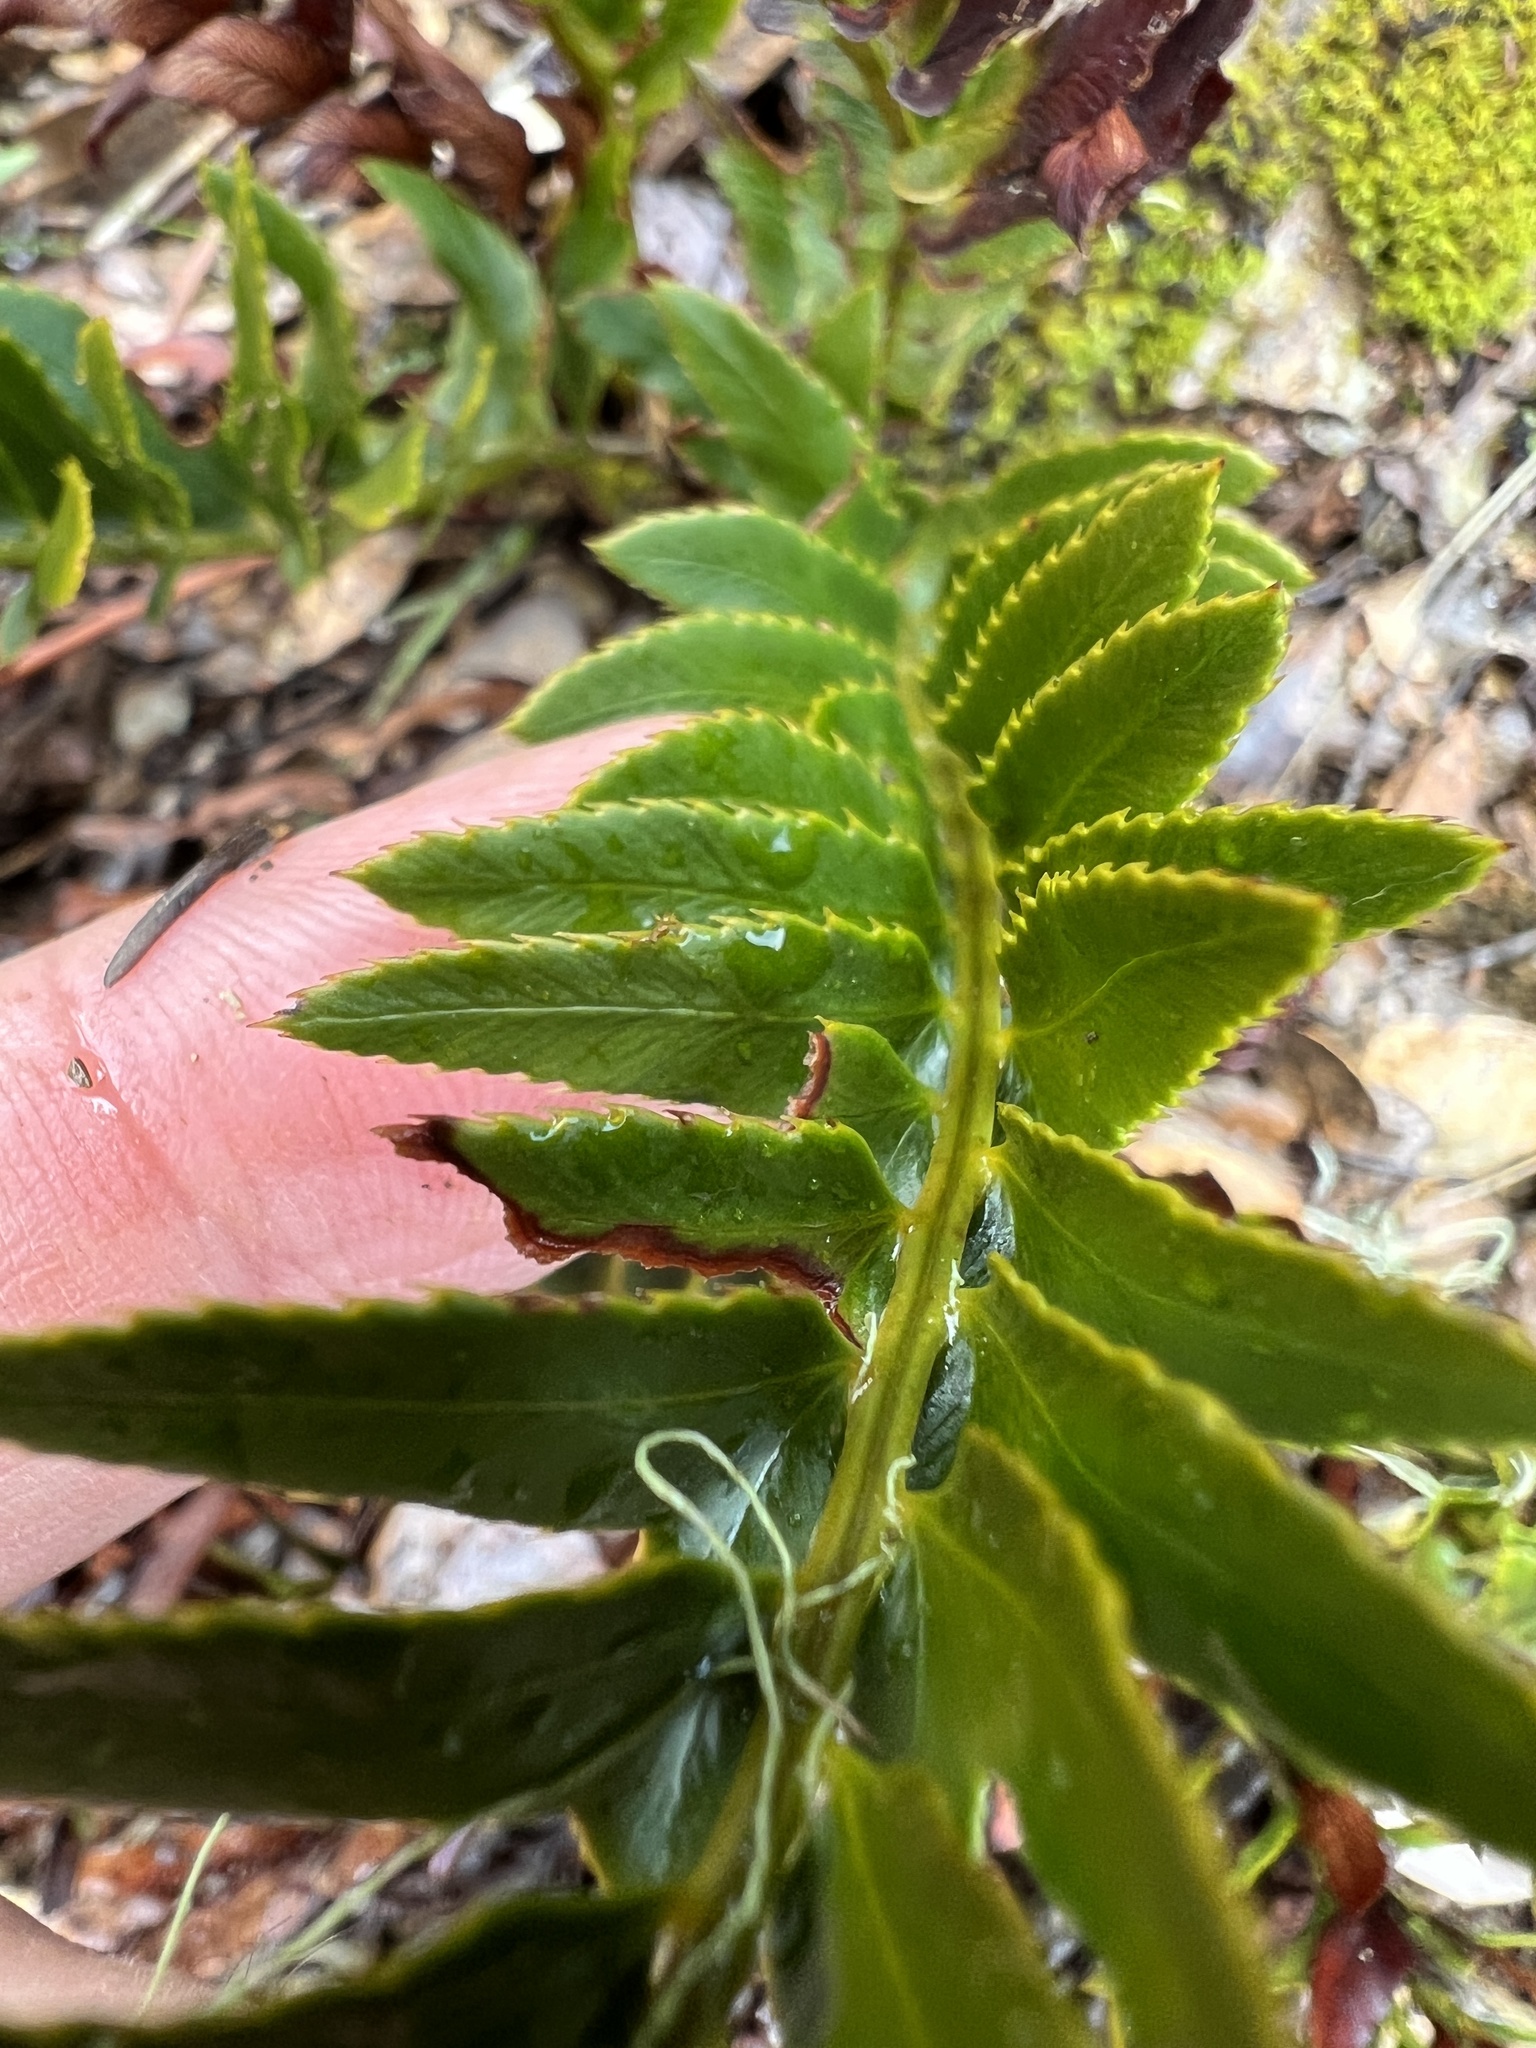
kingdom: Plantae
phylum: Tracheophyta
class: Polypodiopsida
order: Polypodiales
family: Dryopteridaceae
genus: Polystichum
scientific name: Polystichum imbricans
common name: Dwarf western sword fern
